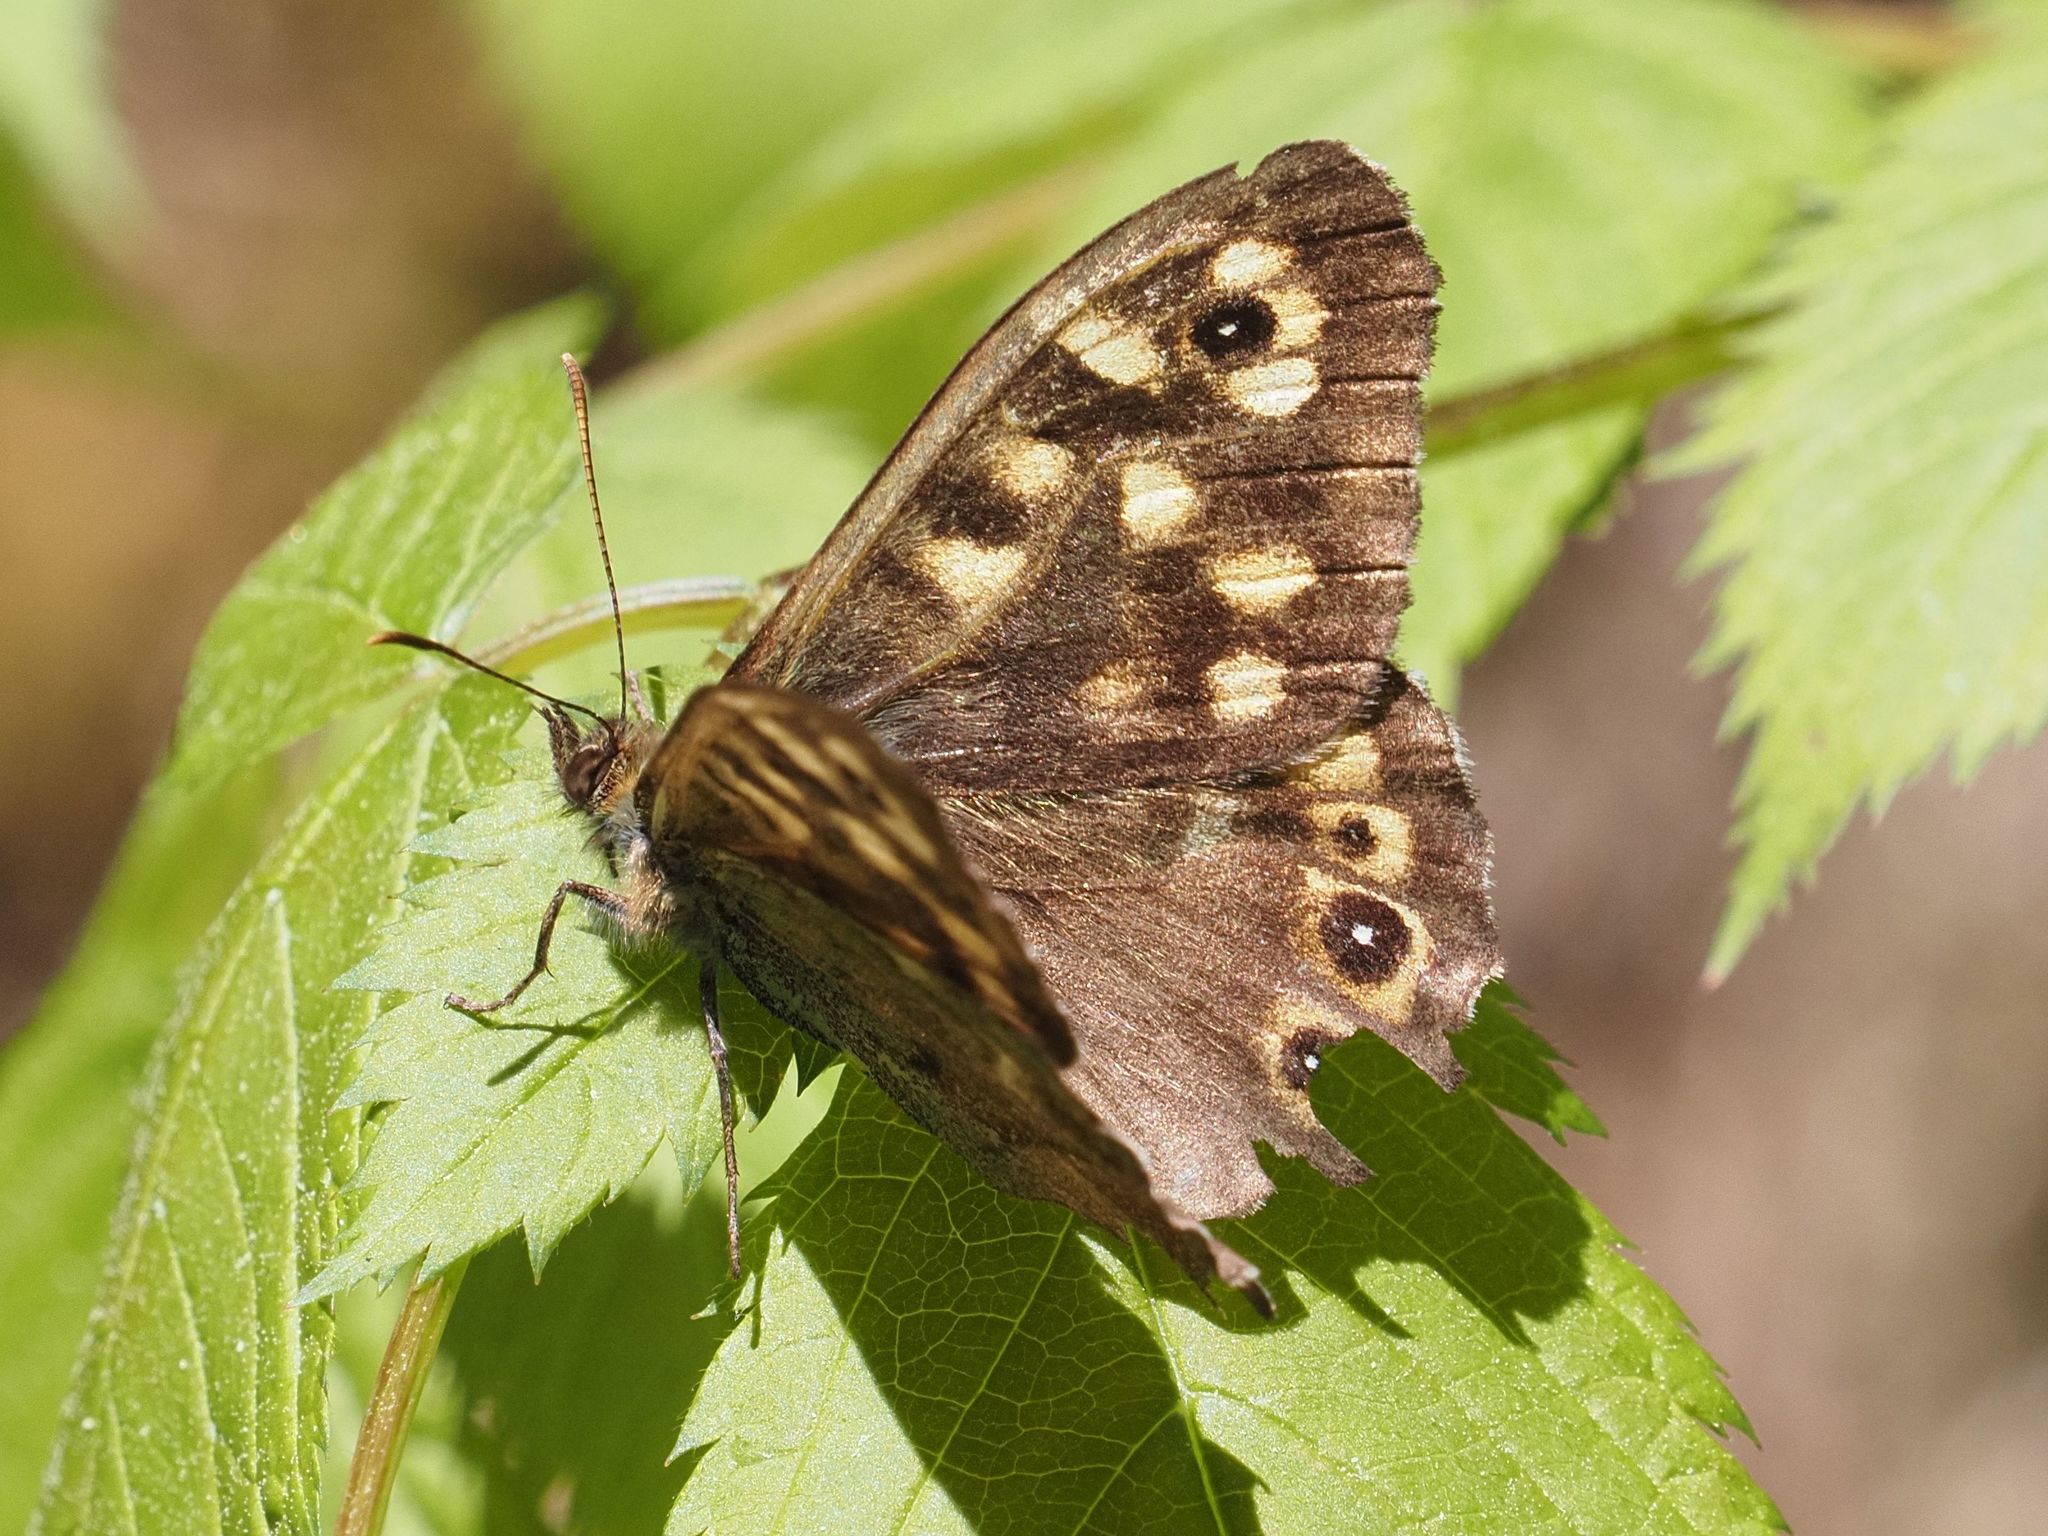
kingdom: Animalia
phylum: Arthropoda
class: Insecta
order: Lepidoptera
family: Nymphalidae
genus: Pararge
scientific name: Pararge aegeria
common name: Speckled wood
